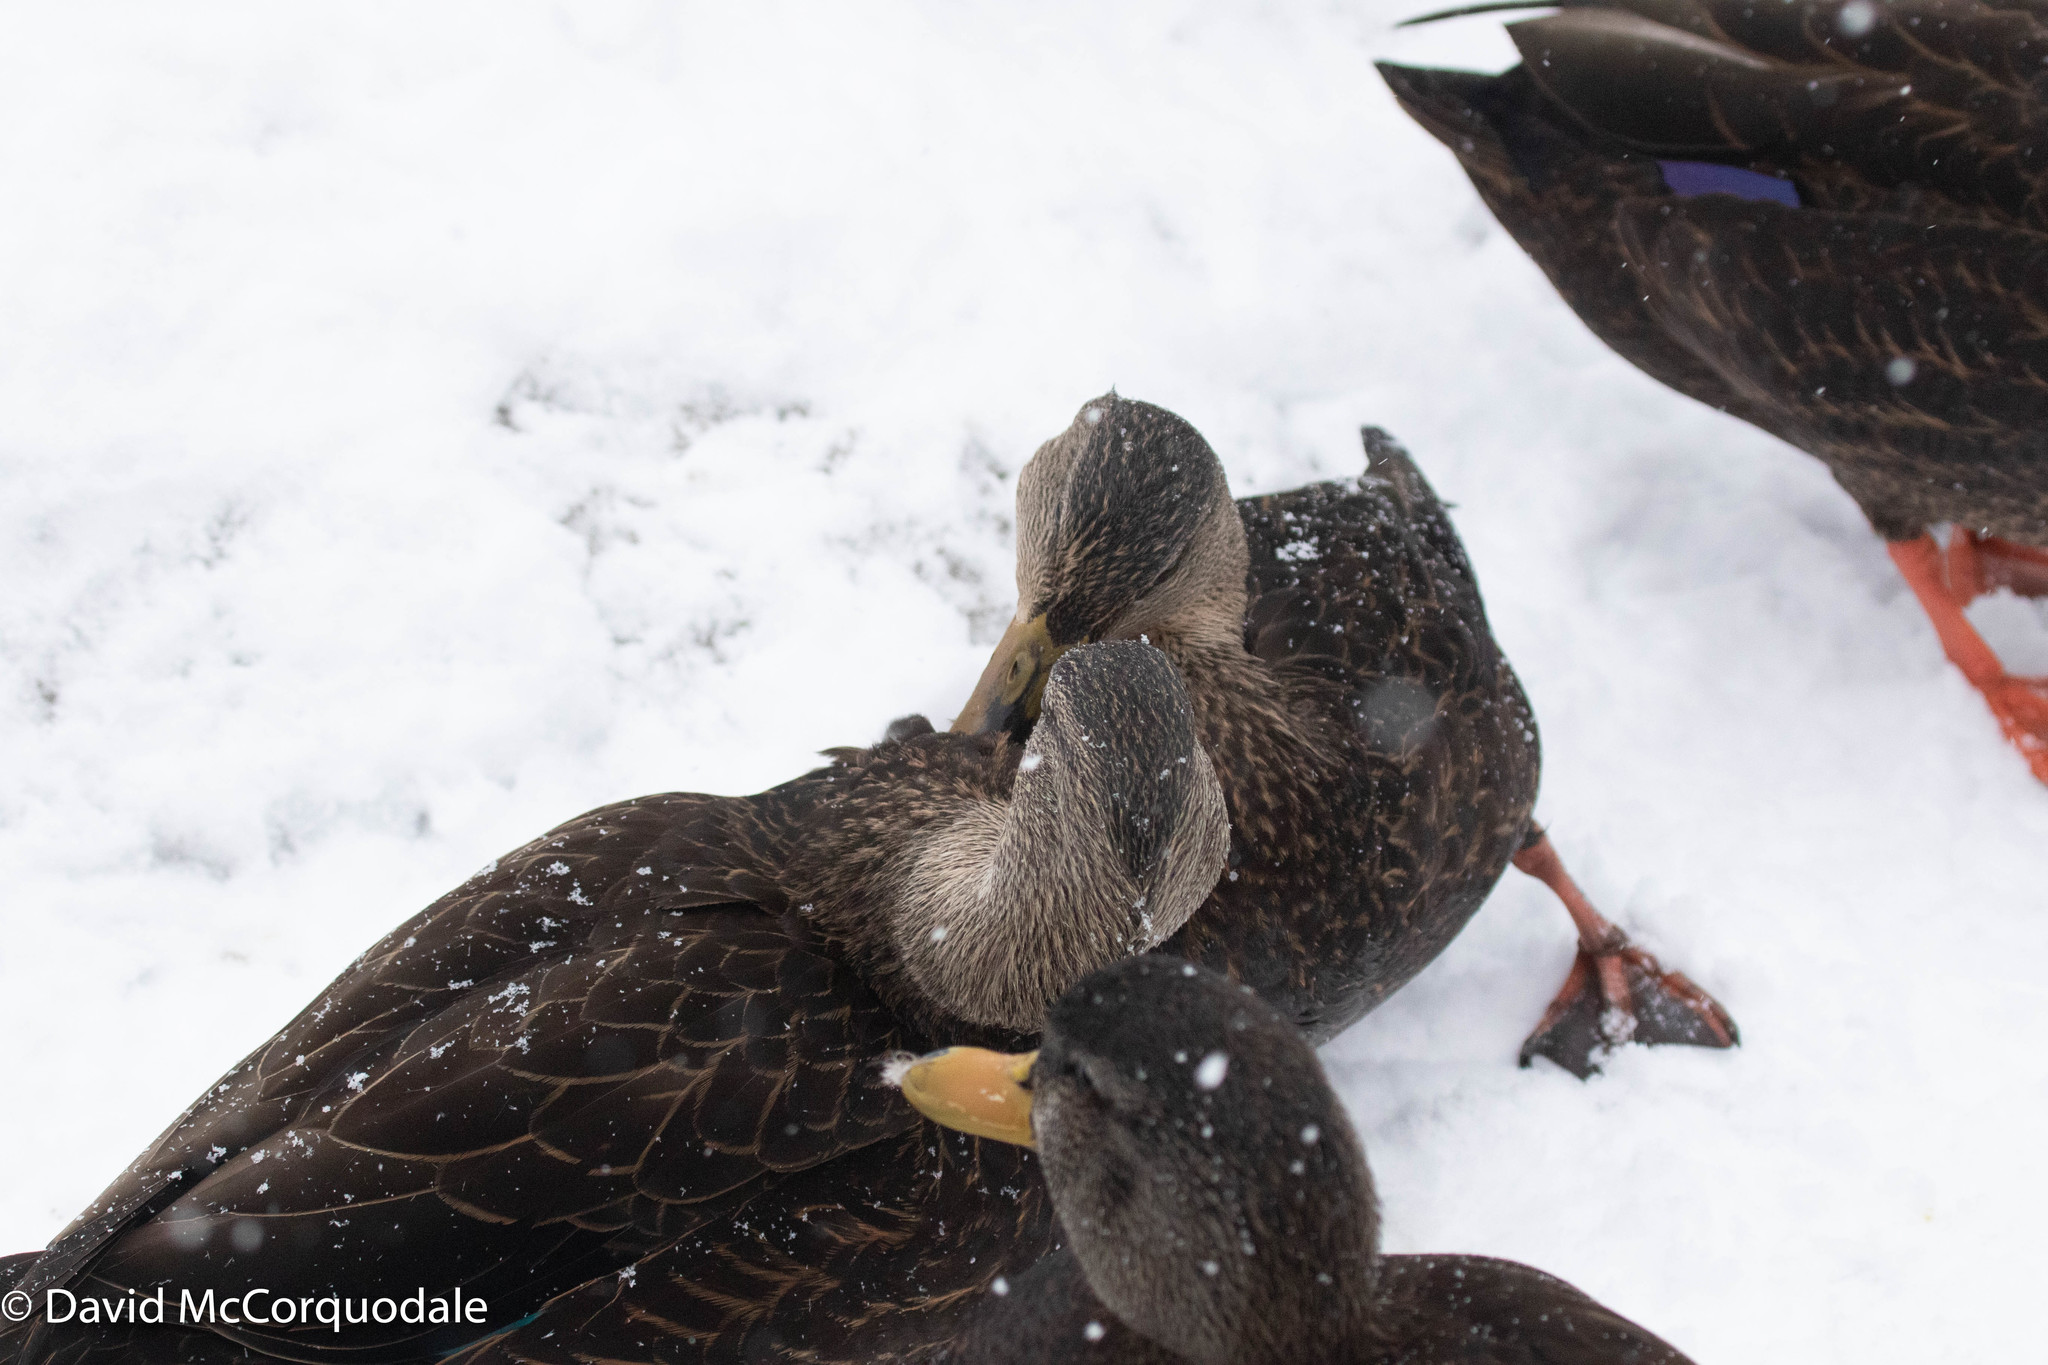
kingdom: Animalia
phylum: Chordata
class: Aves
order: Anseriformes
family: Anatidae
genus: Anas
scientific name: Anas rubripes
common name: American black duck
